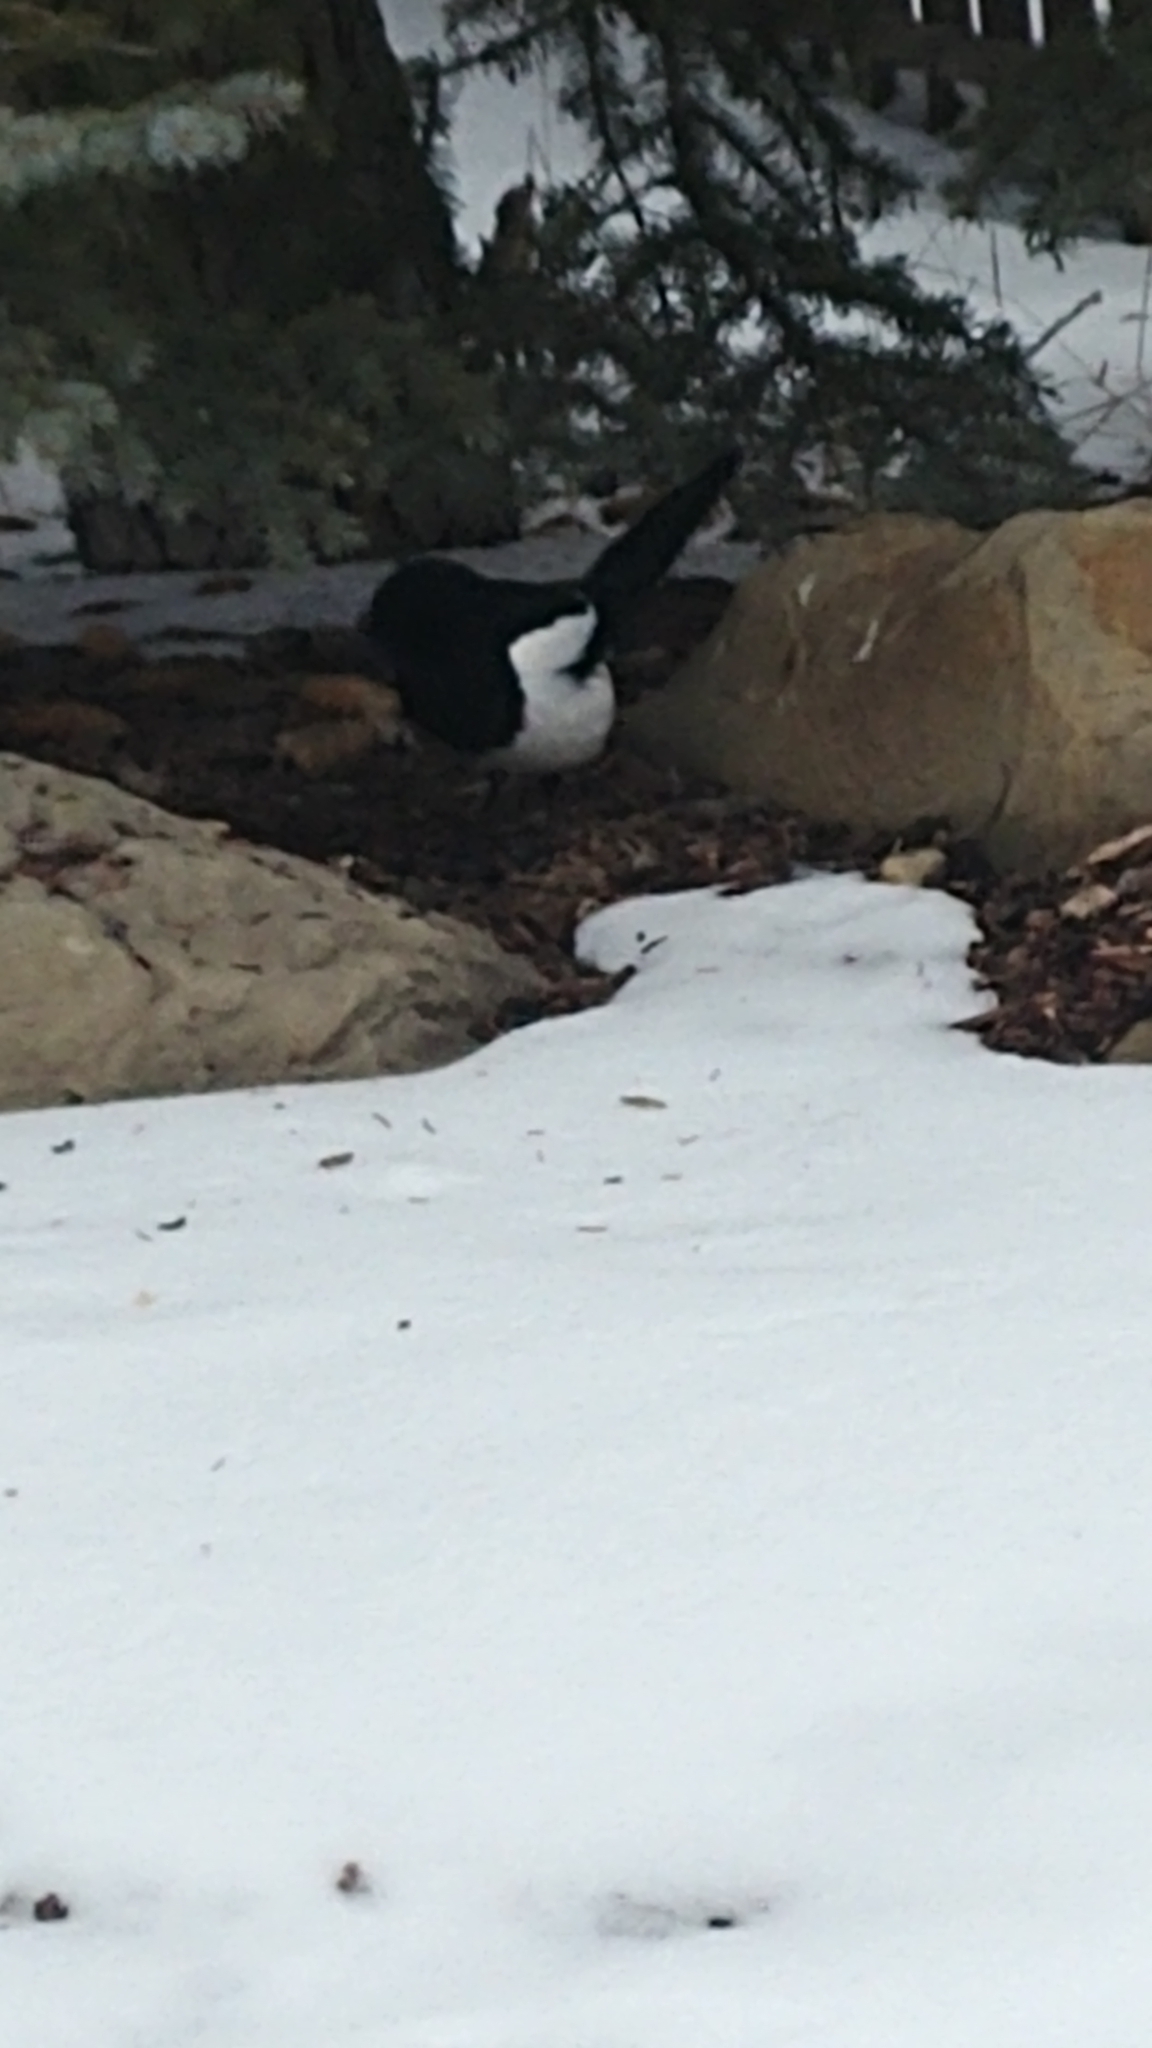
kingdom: Animalia
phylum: Chordata
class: Aves
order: Passeriformes
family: Corvidae
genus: Pica
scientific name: Pica hudsonia
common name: Black-billed magpie
